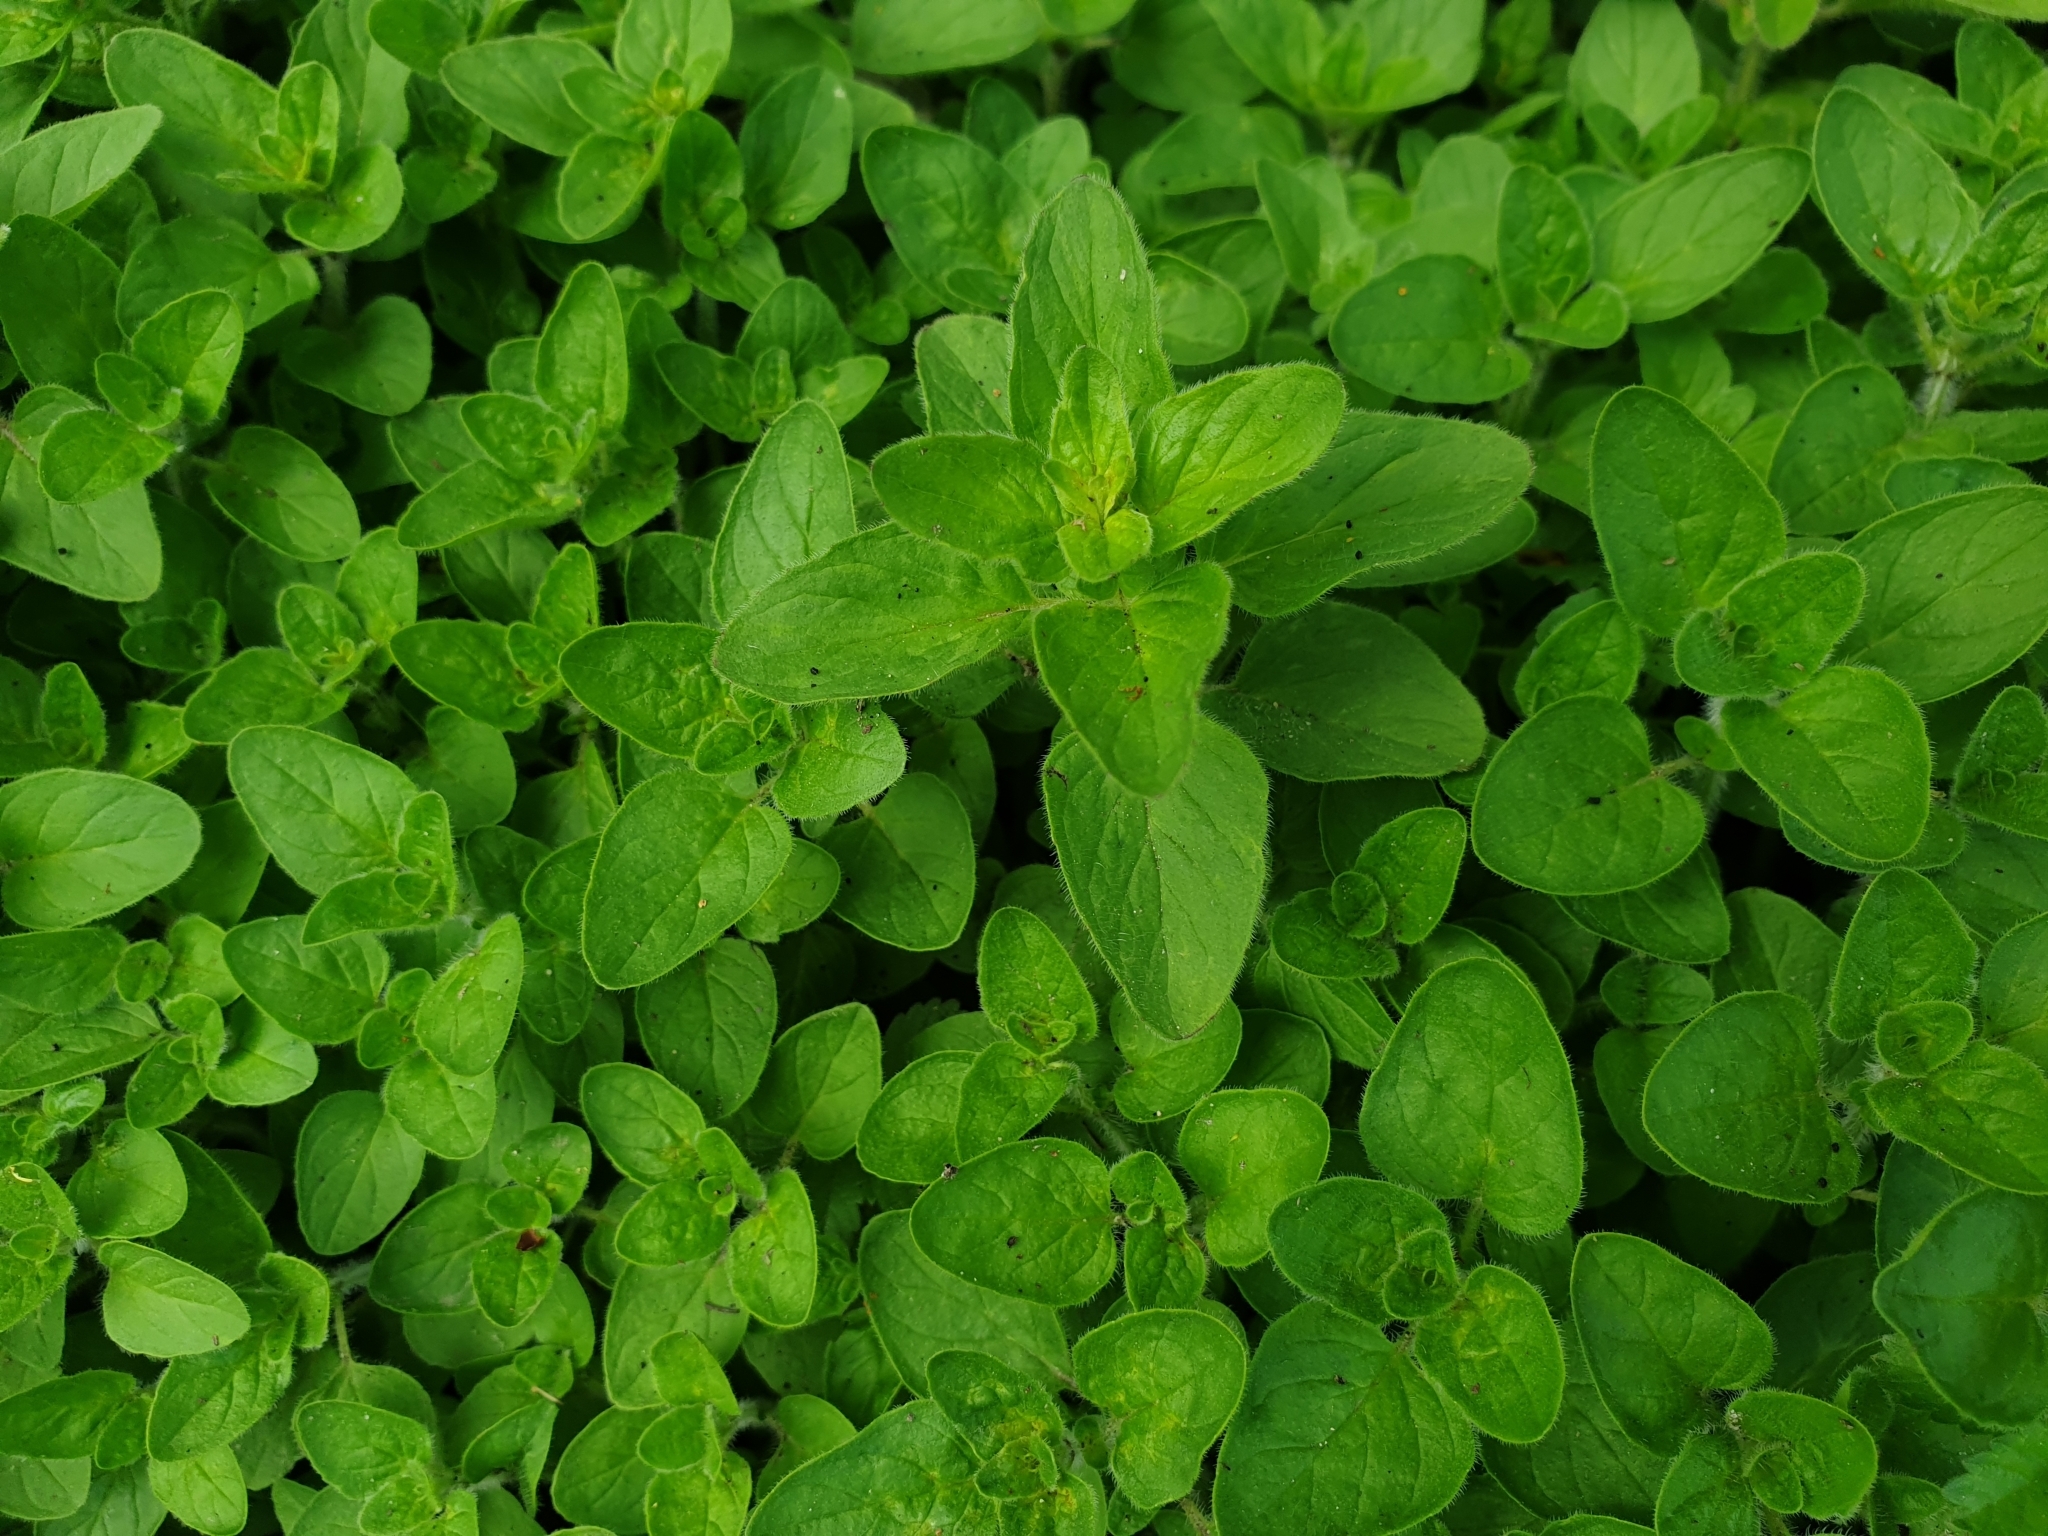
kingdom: Plantae
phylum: Tracheophyta
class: Magnoliopsida
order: Lamiales
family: Lamiaceae
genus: Mentha
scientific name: Mentha arvensis
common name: Corn mint
